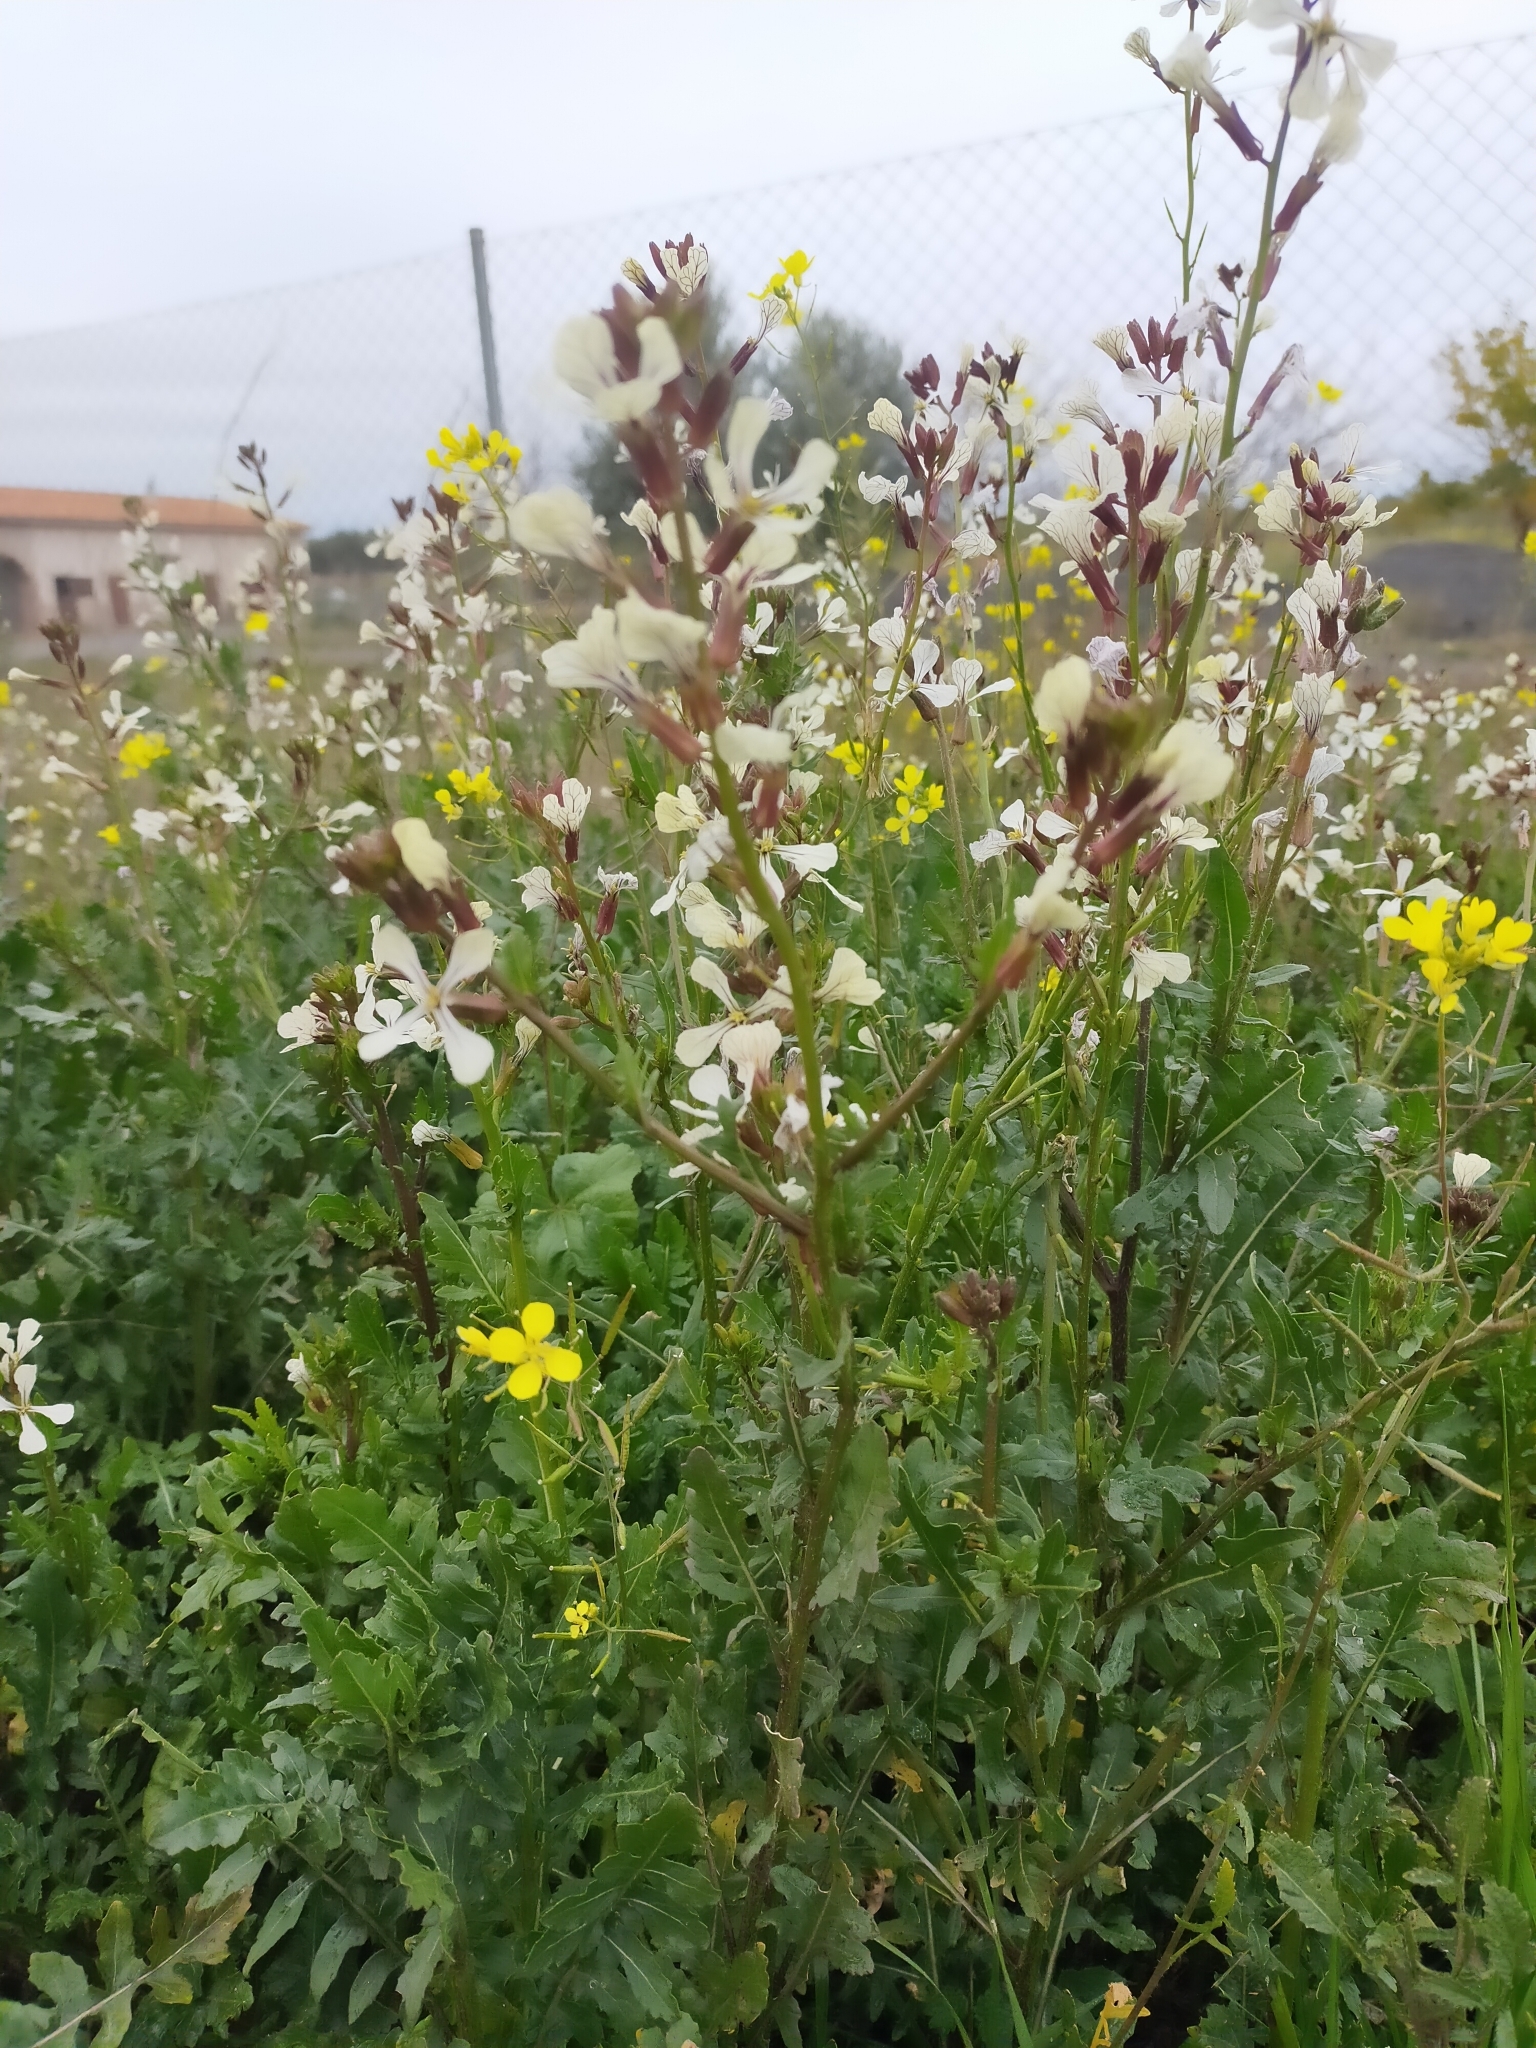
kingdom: Plantae
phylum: Tracheophyta
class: Magnoliopsida
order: Brassicales
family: Brassicaceae
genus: Eruca
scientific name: Eruca vesicaria
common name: Garden rocket
